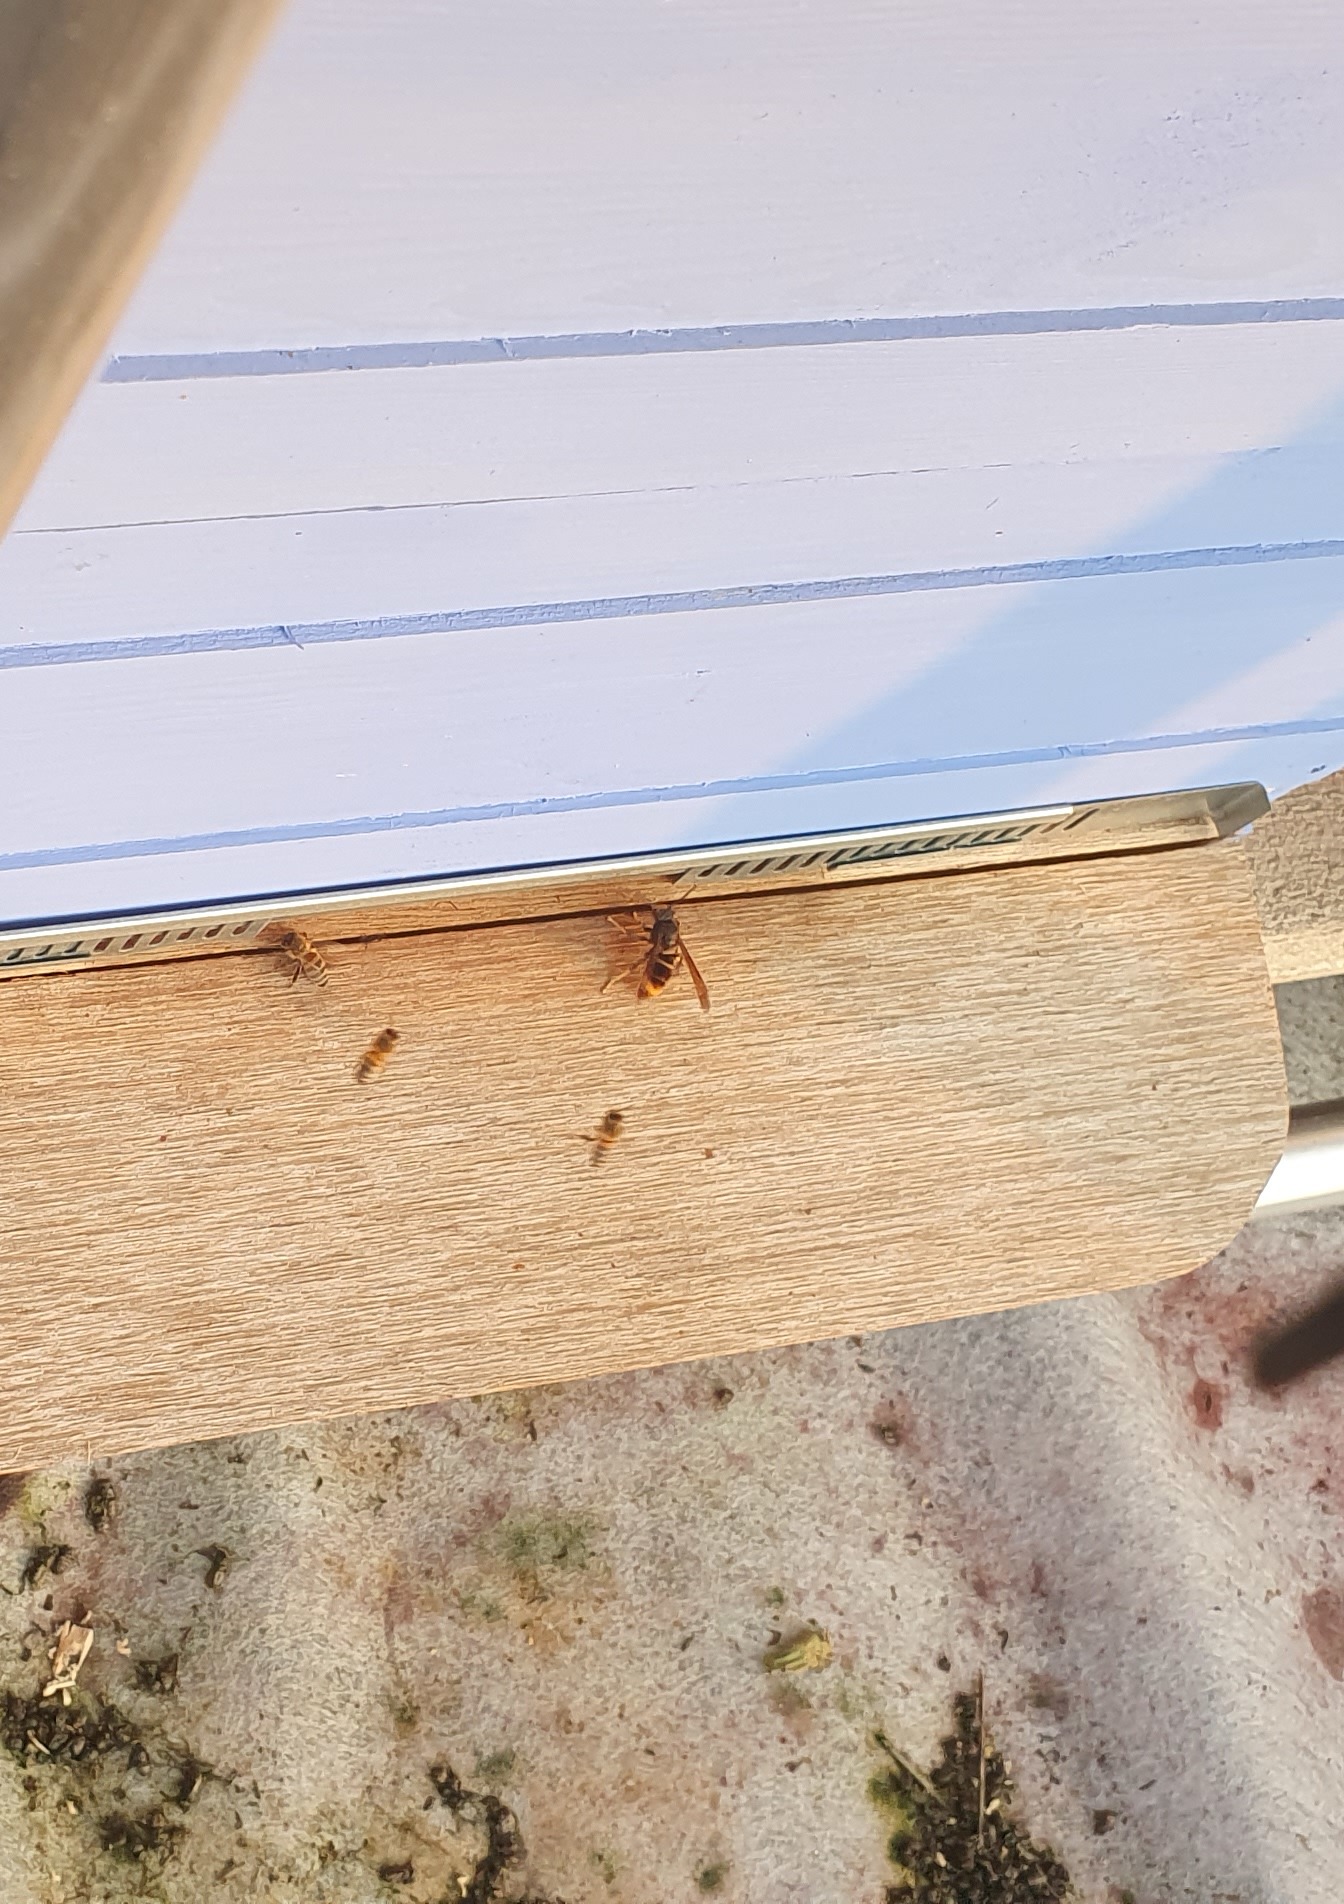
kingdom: Animalia
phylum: Arthropoda
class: Insecta
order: Hymenoptera
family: Vespidae
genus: Vespa
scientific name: Vespa velutina
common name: Asian hornet
